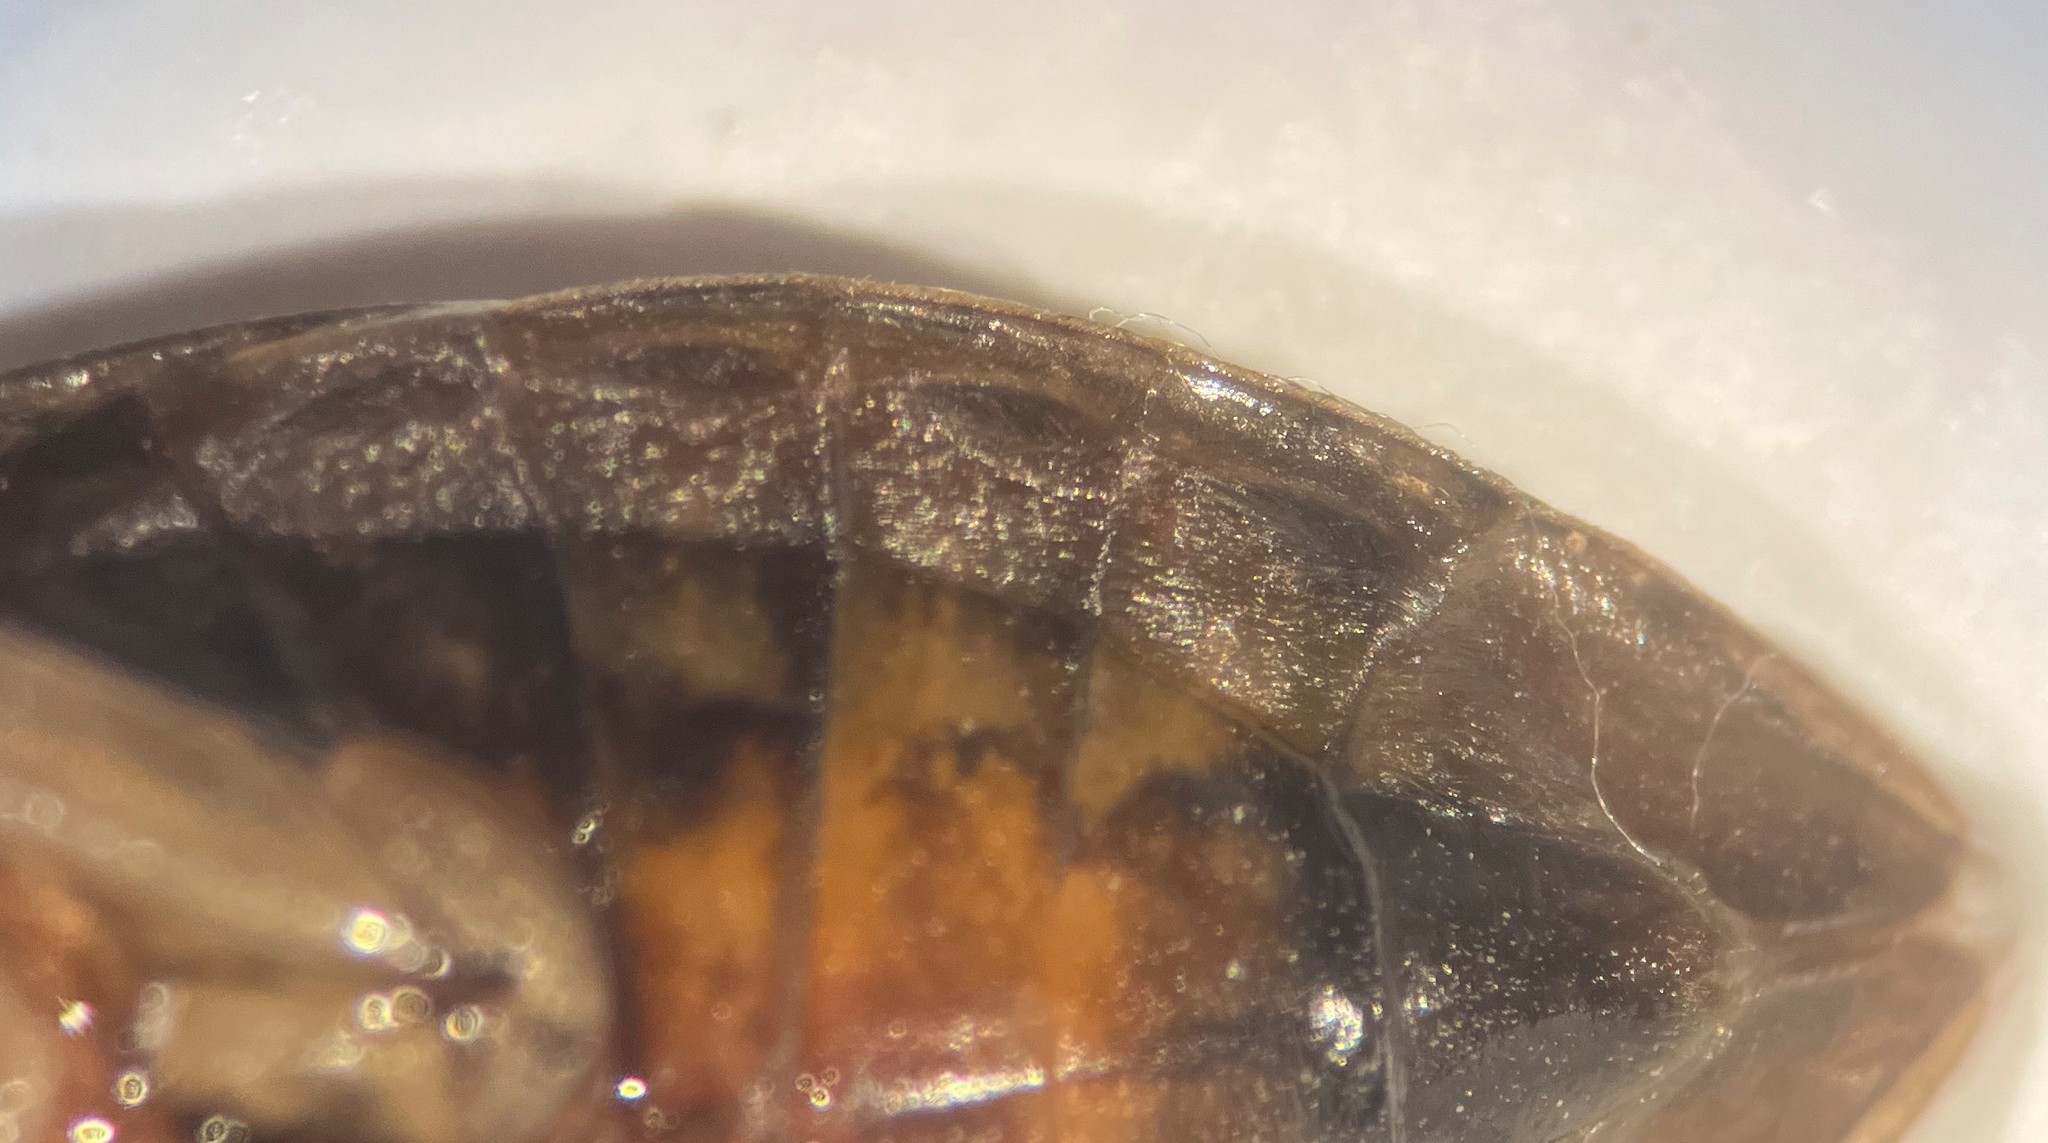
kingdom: Animalia
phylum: Arthropoda
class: Insecta
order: Hemiptera
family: Belostomatidae
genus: Belostoma
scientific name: Belostoma bakeri
